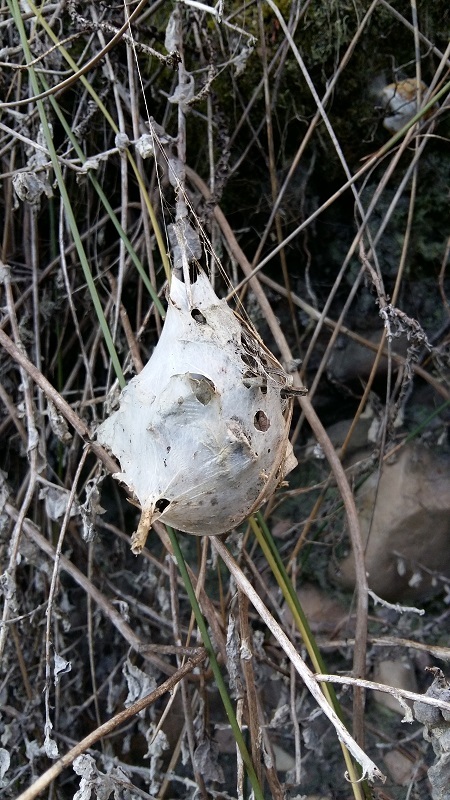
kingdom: Animalia
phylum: Arthropoda
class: Arachnida
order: Araneae
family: Sparassidae
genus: Palystes
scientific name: Palystes castaneus
